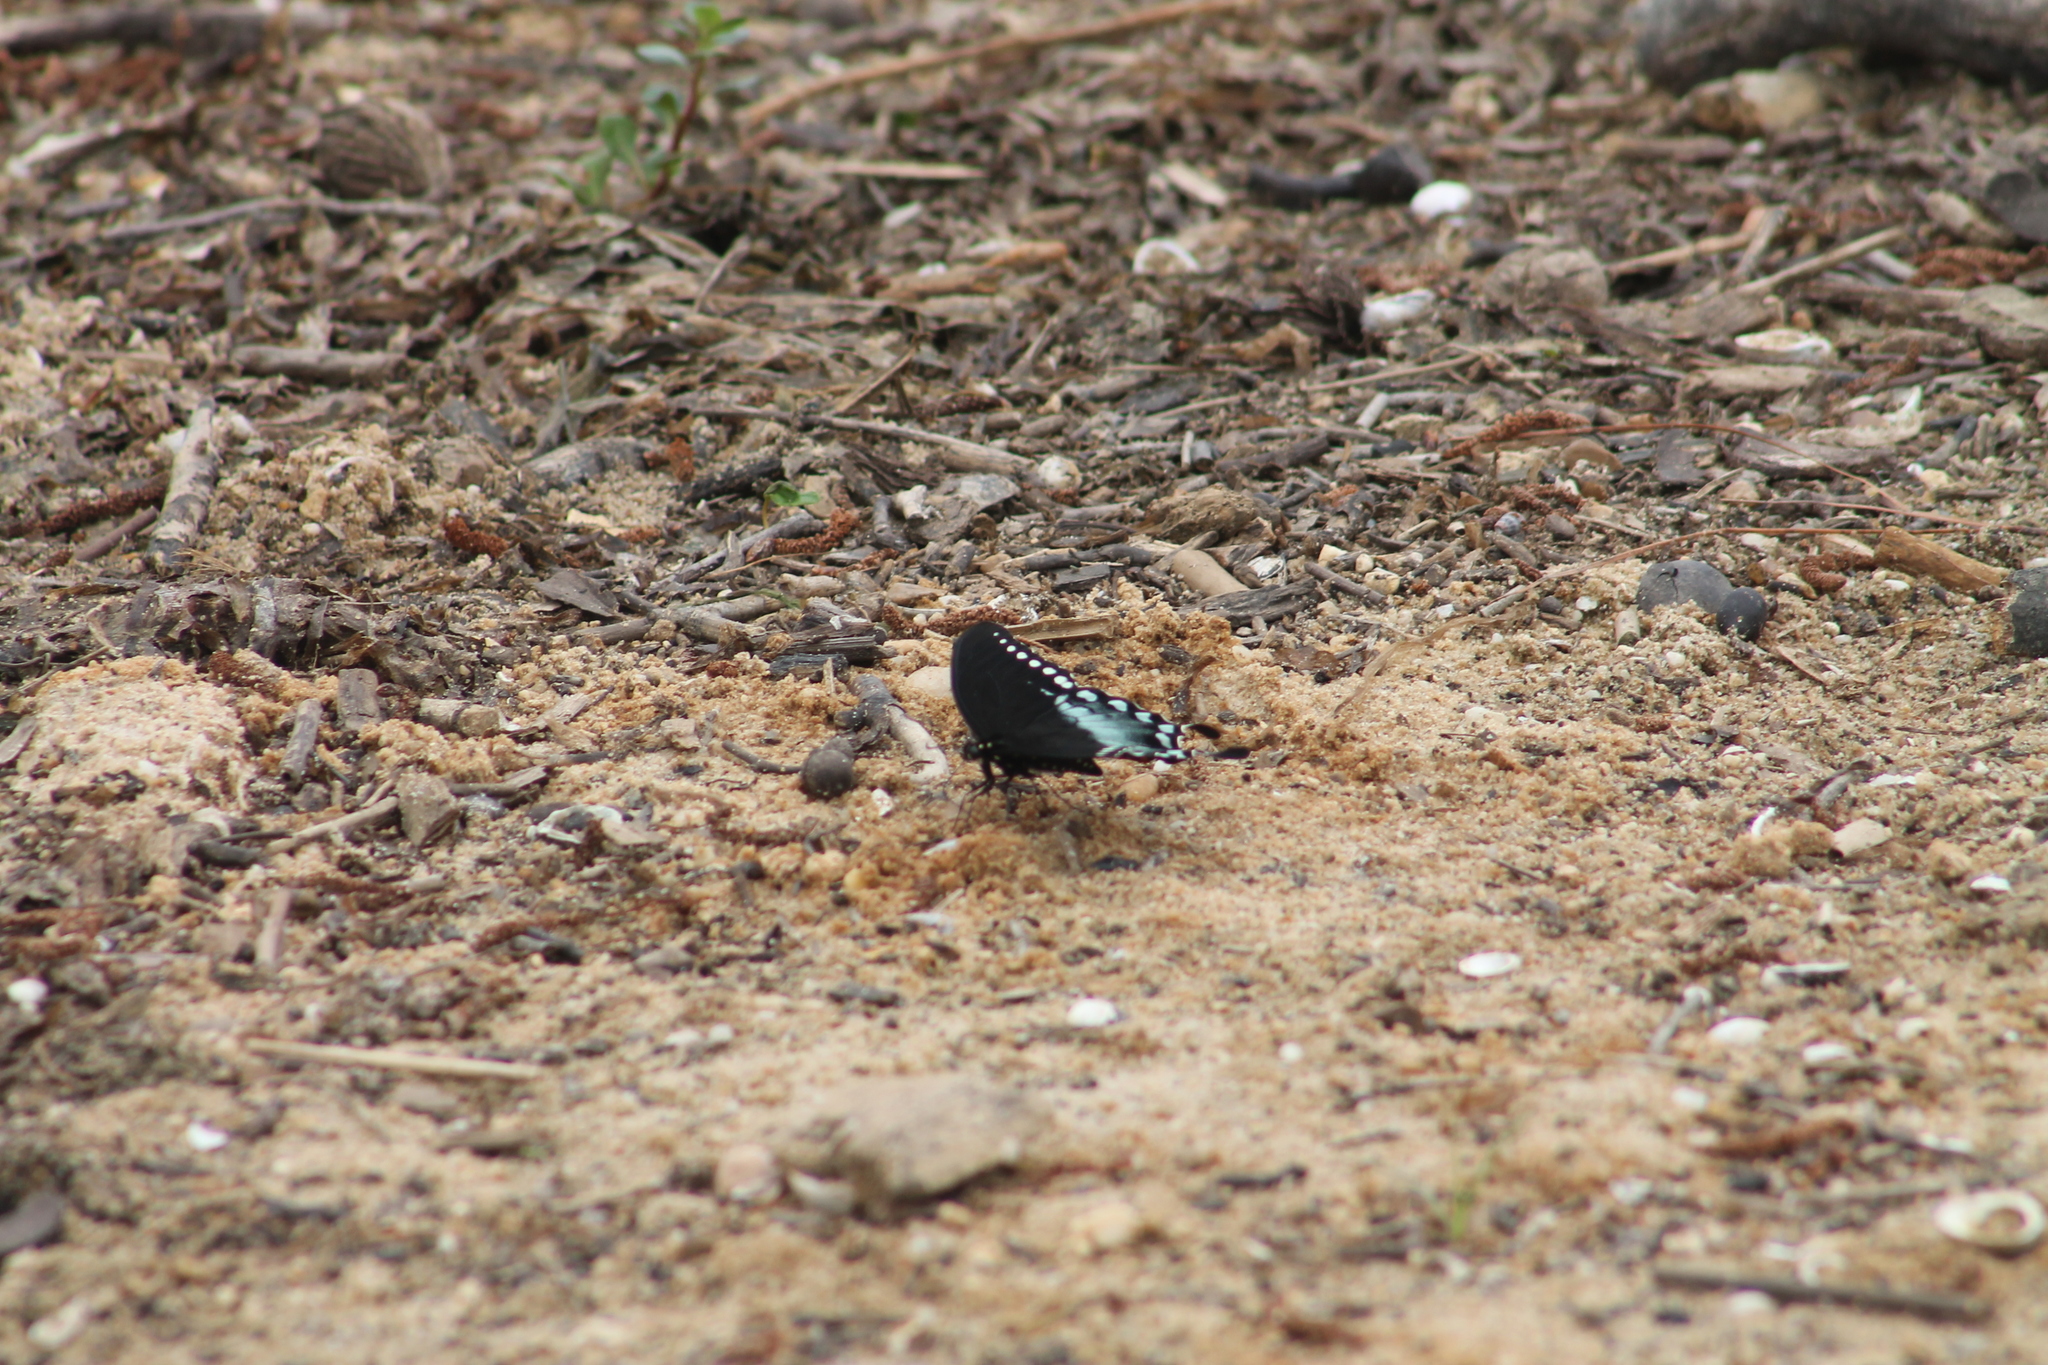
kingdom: Animalia
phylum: Arthropoda
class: Insecta
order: Lepidoptera
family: Papilionidae
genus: Papilio
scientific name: Papilio troilus
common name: Spicebush swallowtail
